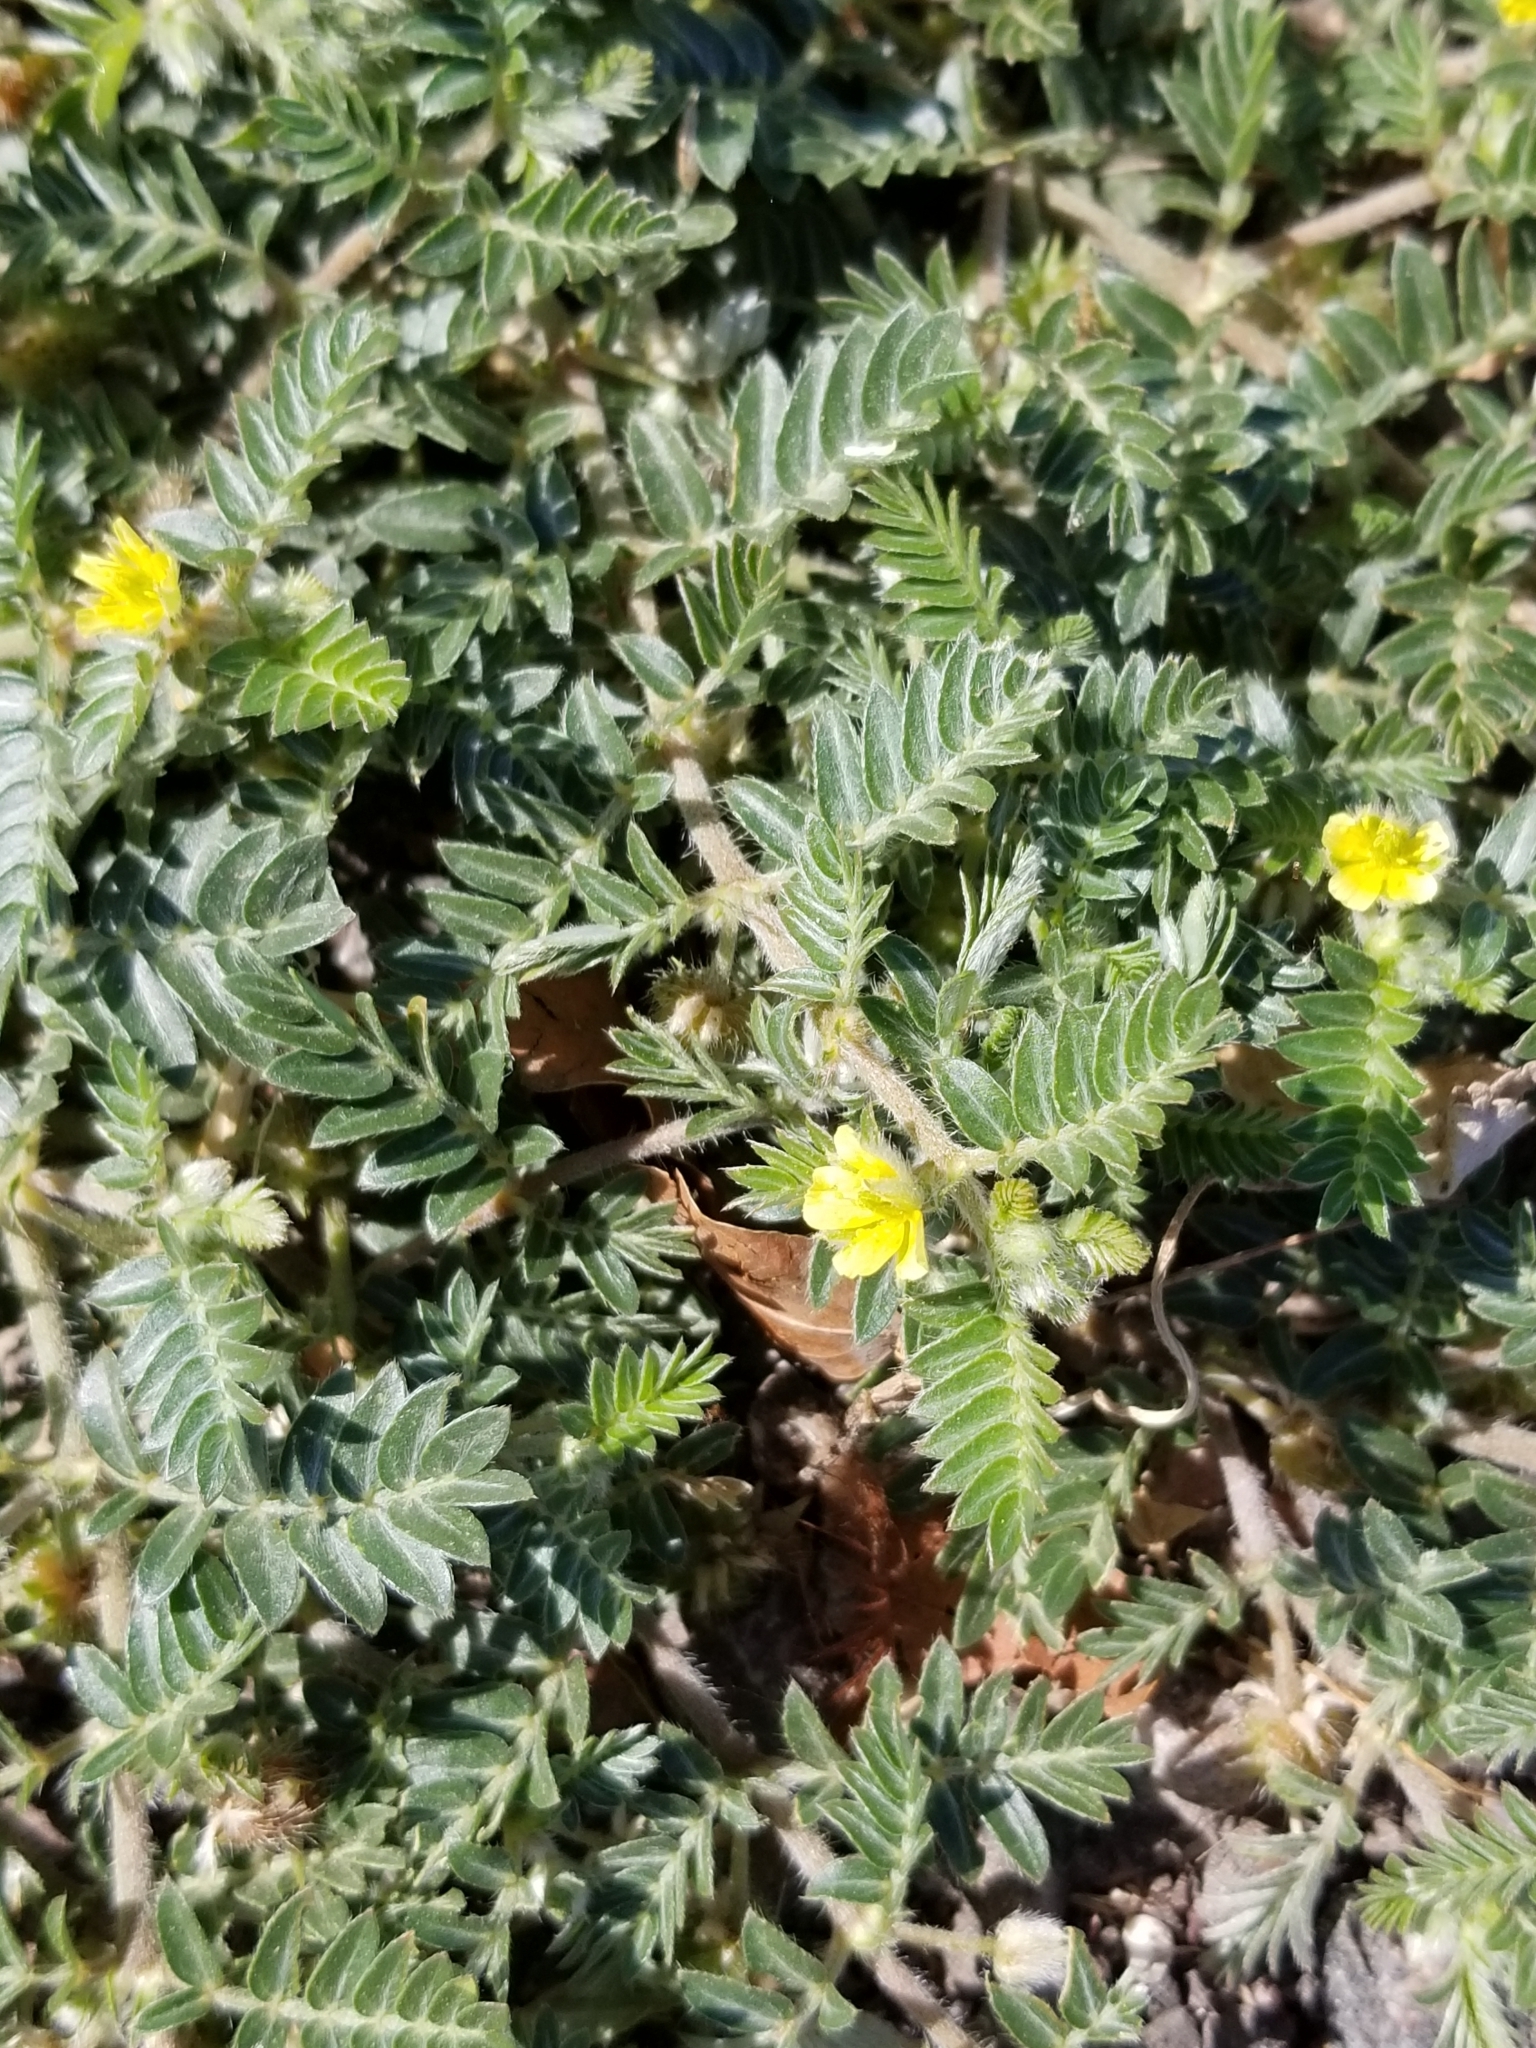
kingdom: Plantae
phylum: Tracheophyta
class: Magnoliopsida
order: Zygophyllales
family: Zygophyllaceae
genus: Tribulus
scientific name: Tribulus terrestris
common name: Puncturevine
